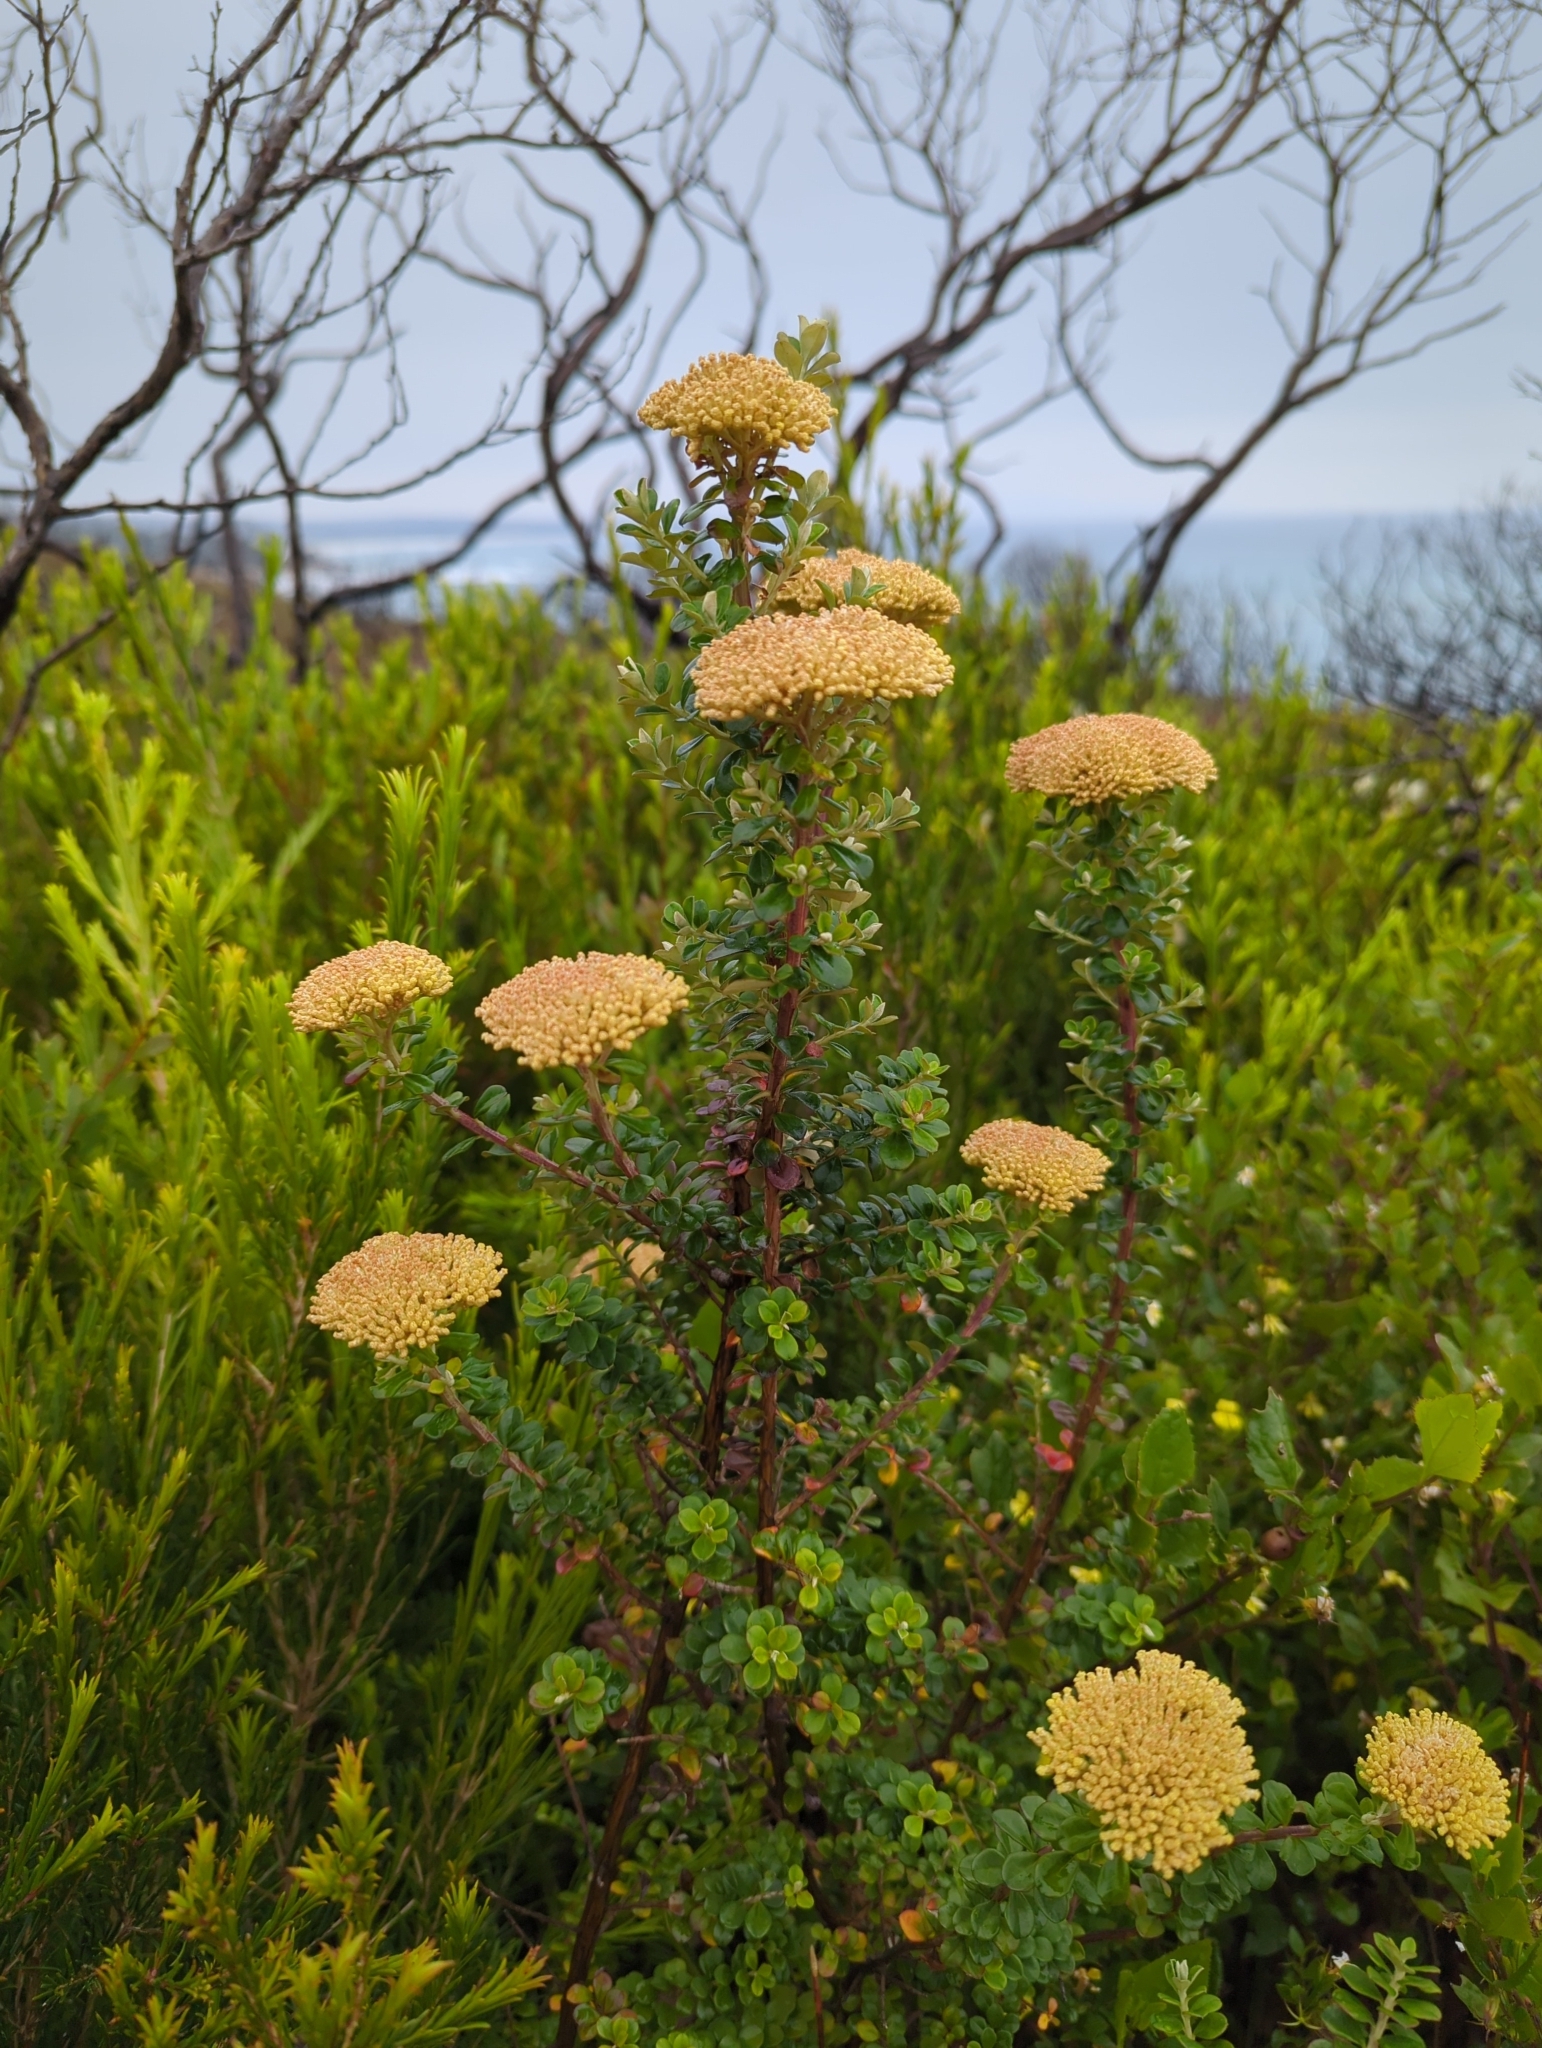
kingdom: Plantae
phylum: Tracheophyta
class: Magnoliopsida
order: Asterales
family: Asteraceae
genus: Ozothamnus
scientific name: Ozothamnus obcordatus
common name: Grey everlasting
